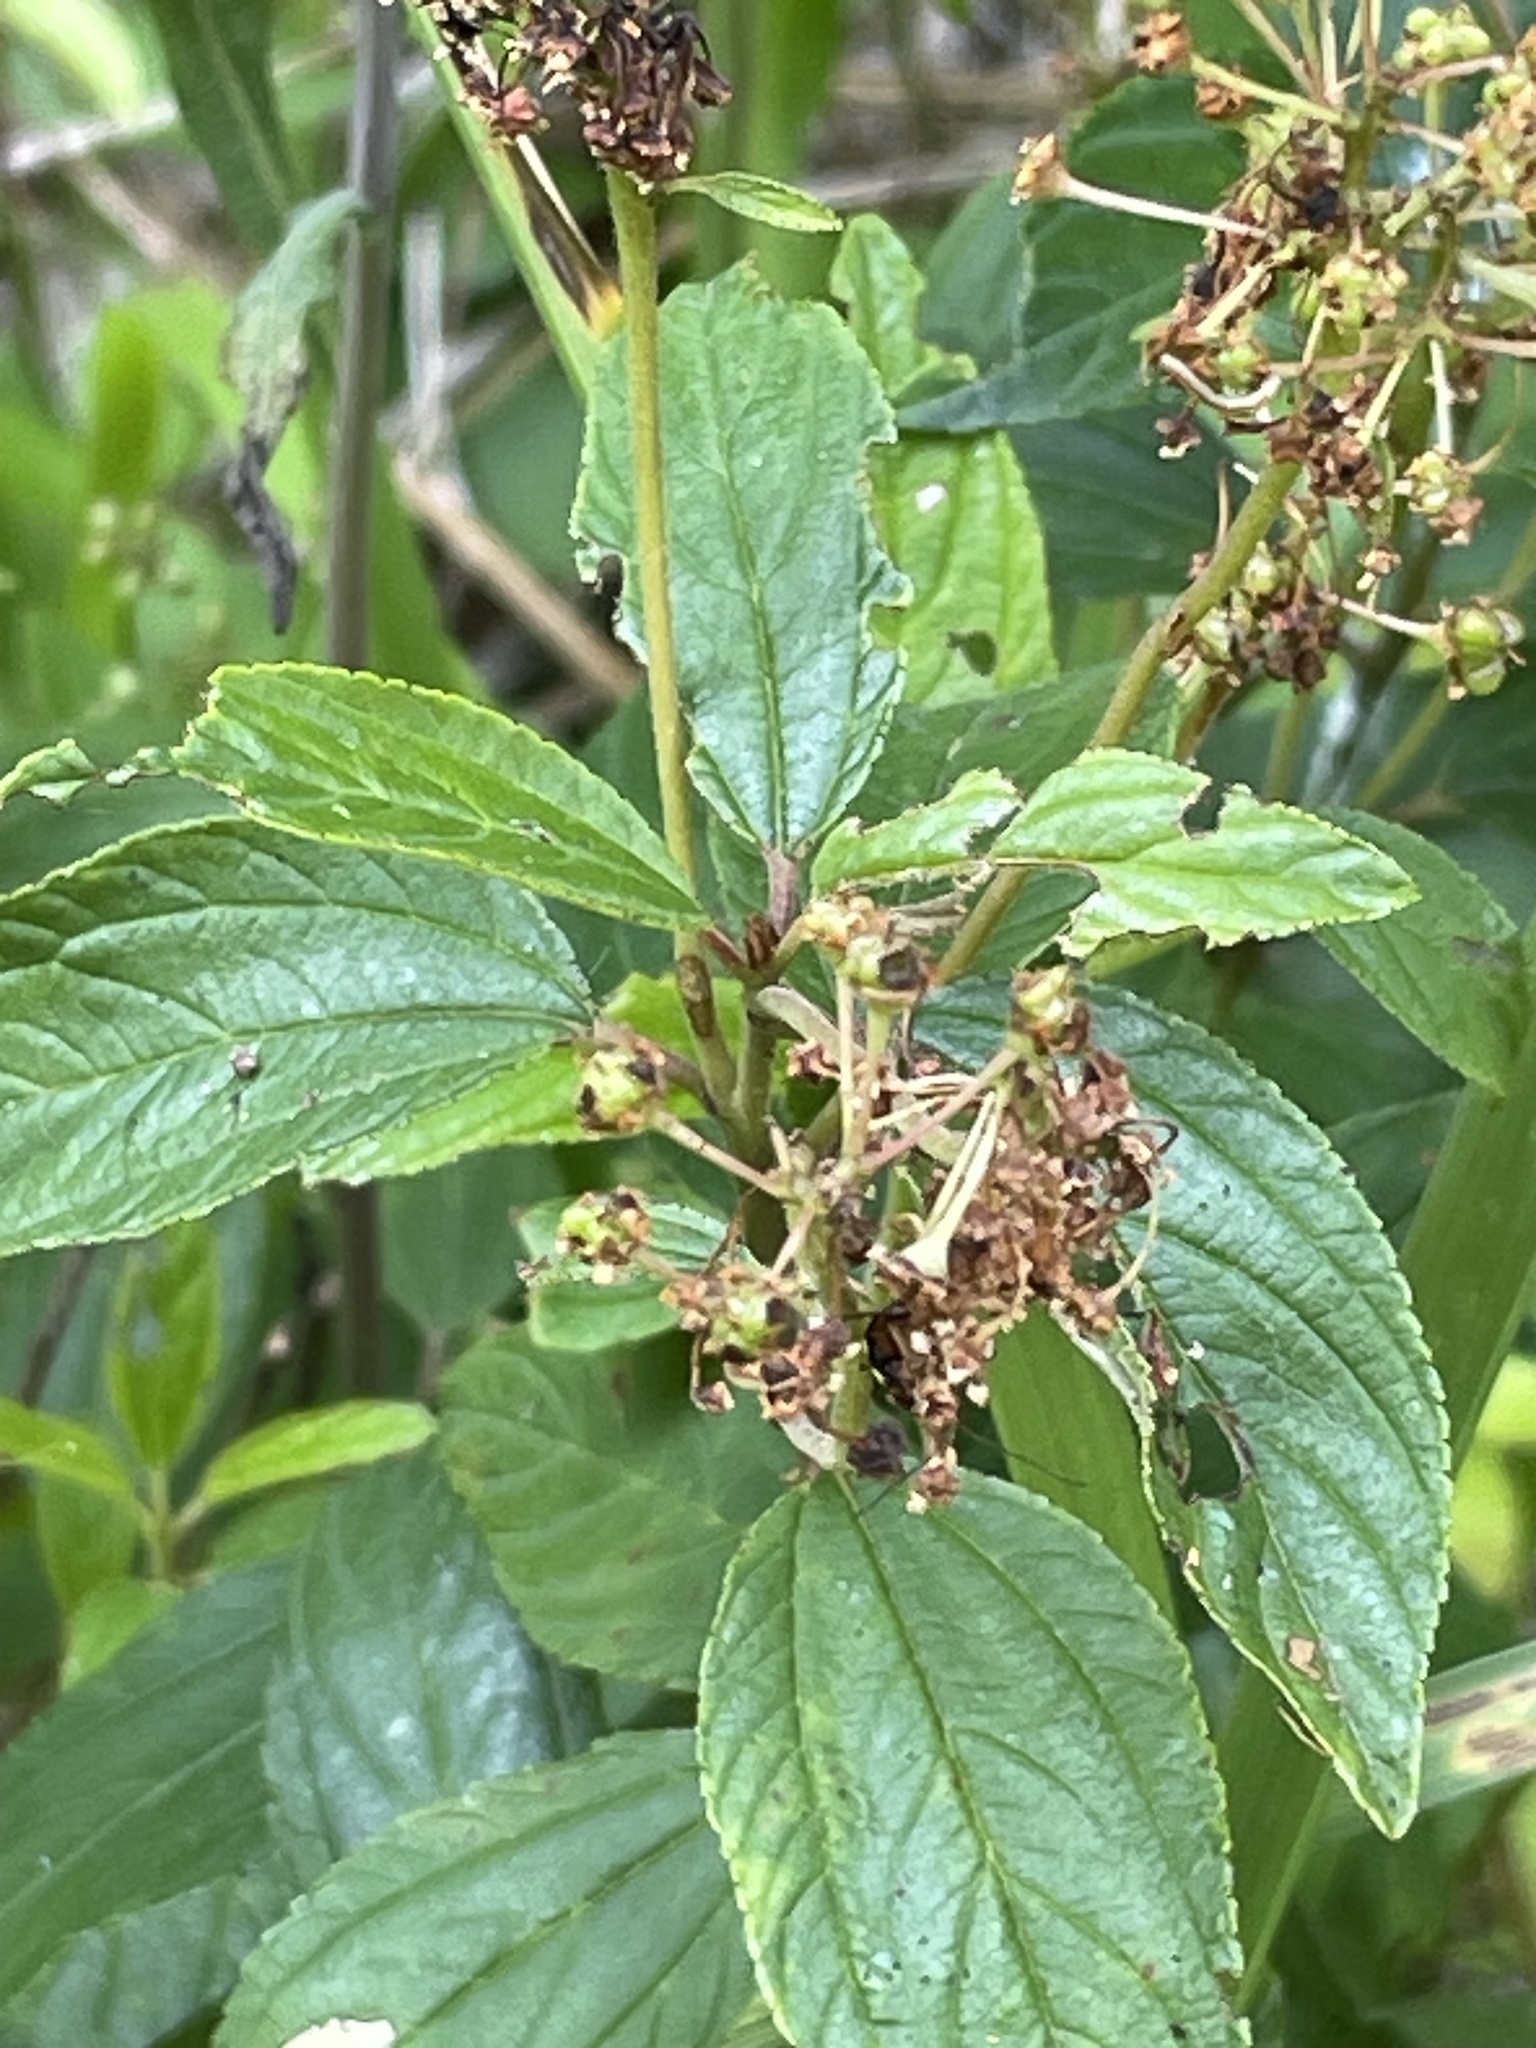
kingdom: Plantae
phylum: Tracheophyta
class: Magnoliopsida
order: Rosales
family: Rhamnaceae
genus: Ceanothus
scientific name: Ceanothus americanus
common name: Redroot
